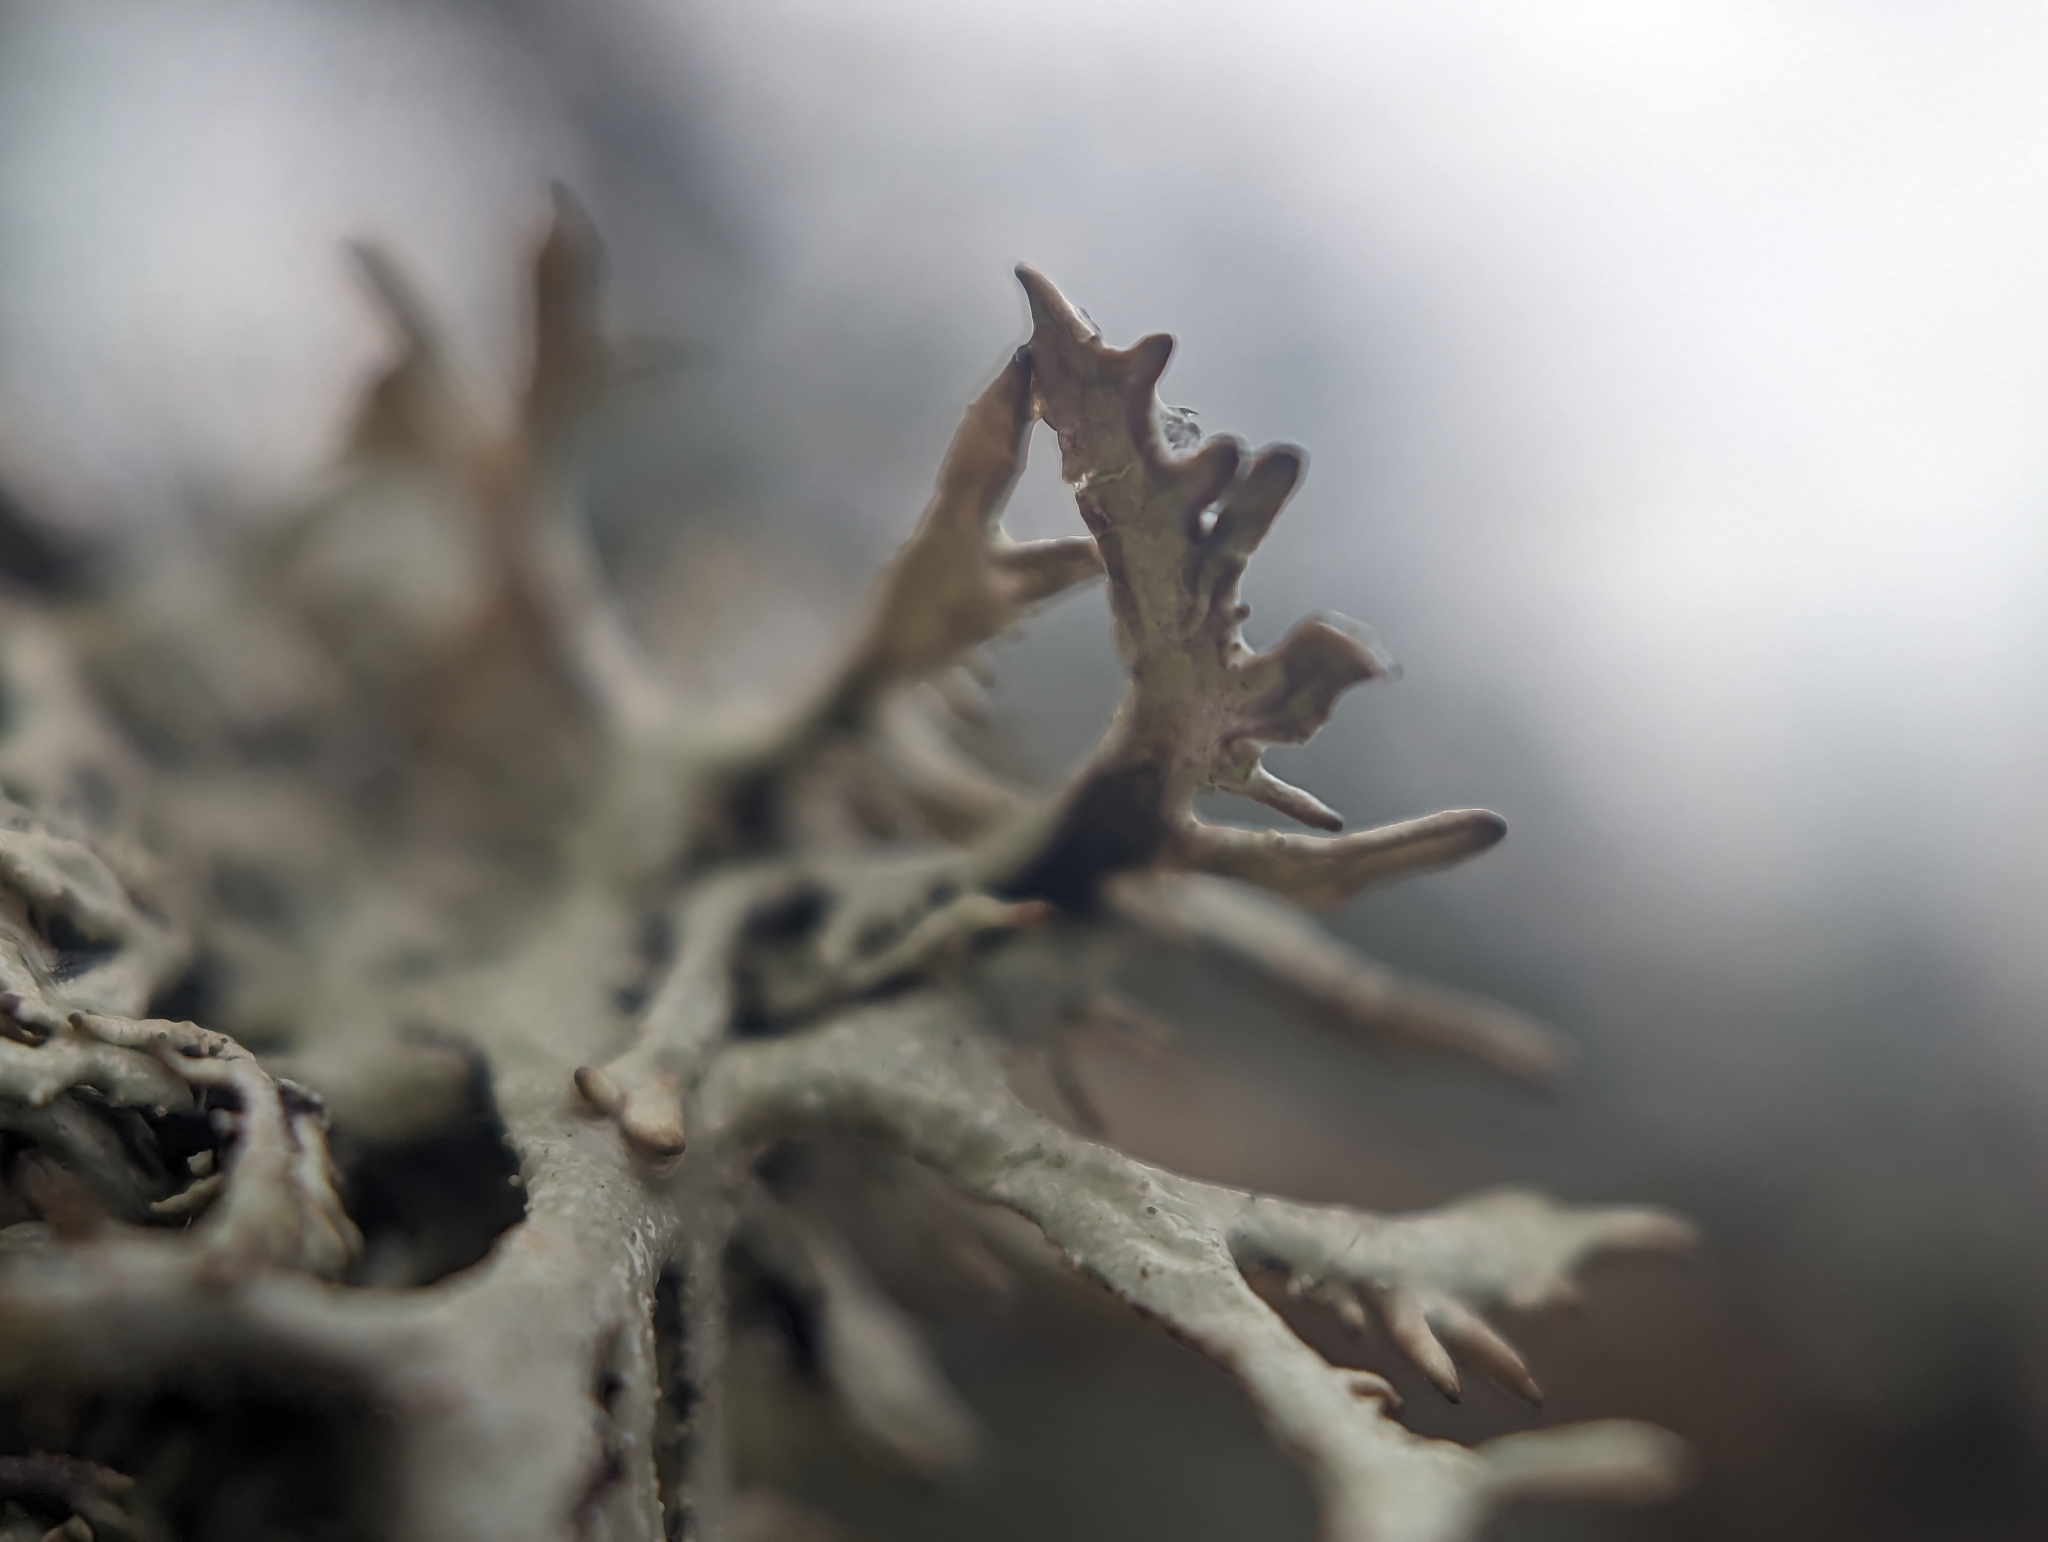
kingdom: Fungi
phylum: Ascomycota
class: Lecanoromycetes
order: Lecanorales
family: Parmeliaceae
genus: Pseudevernia
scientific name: Pseudevernia furfuracea
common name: Tree moss
